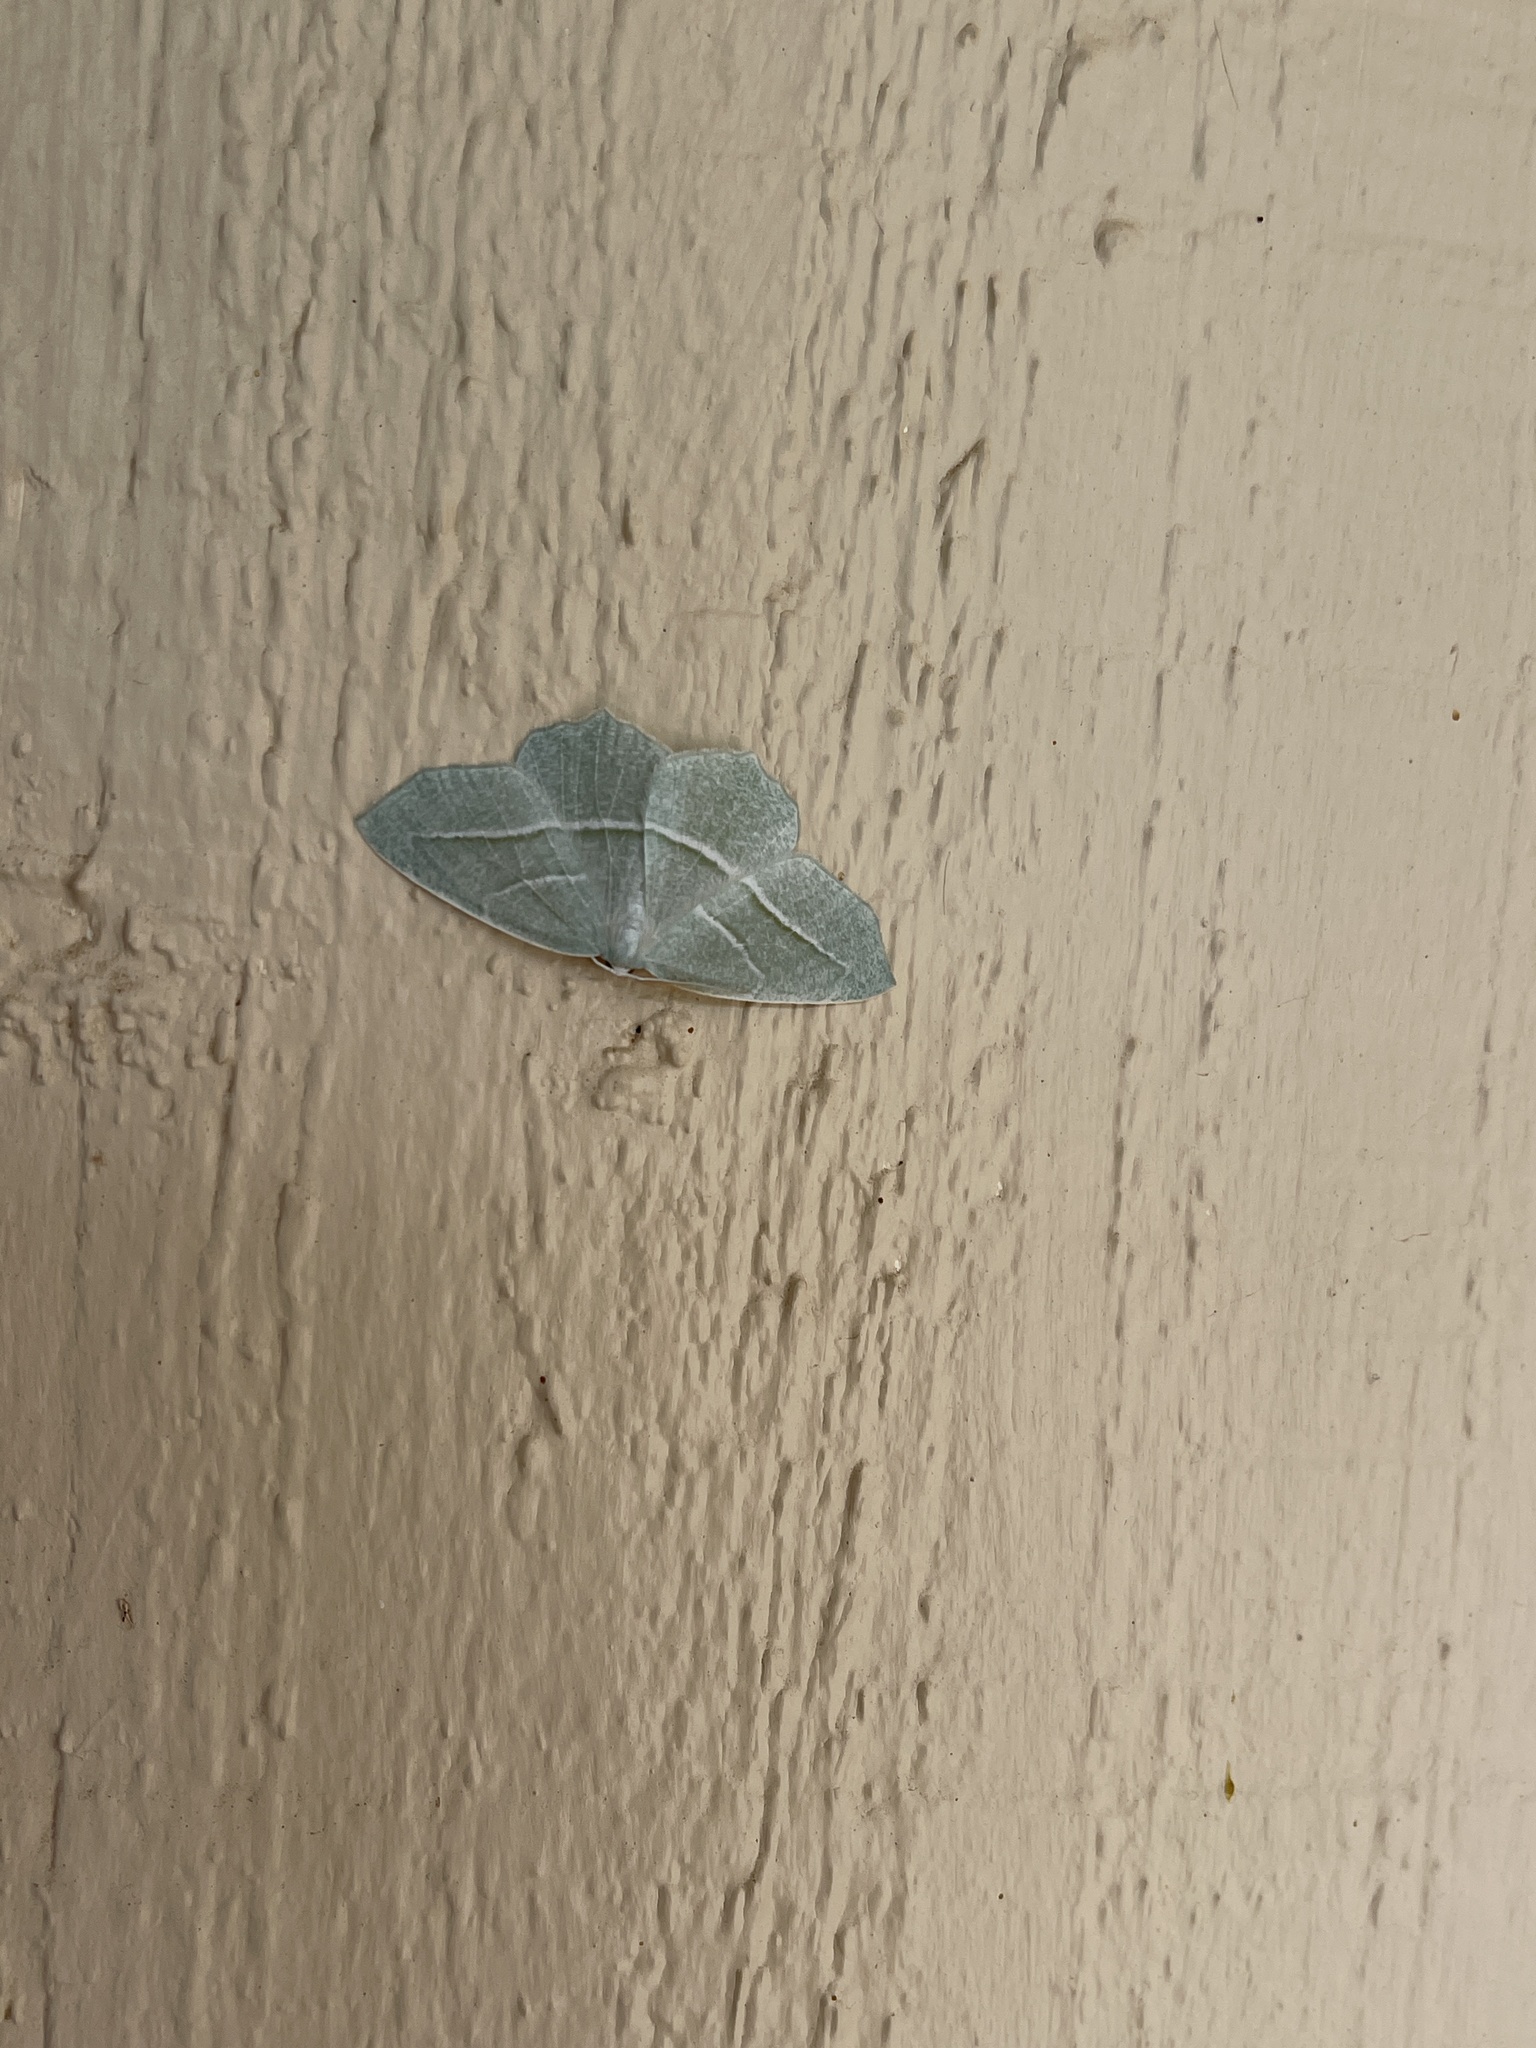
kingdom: Animalia
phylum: Arthropoda
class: Insecta
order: Lepidoptera
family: Geometridae
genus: Campaea
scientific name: Campaea perlata
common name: Fringed looper
